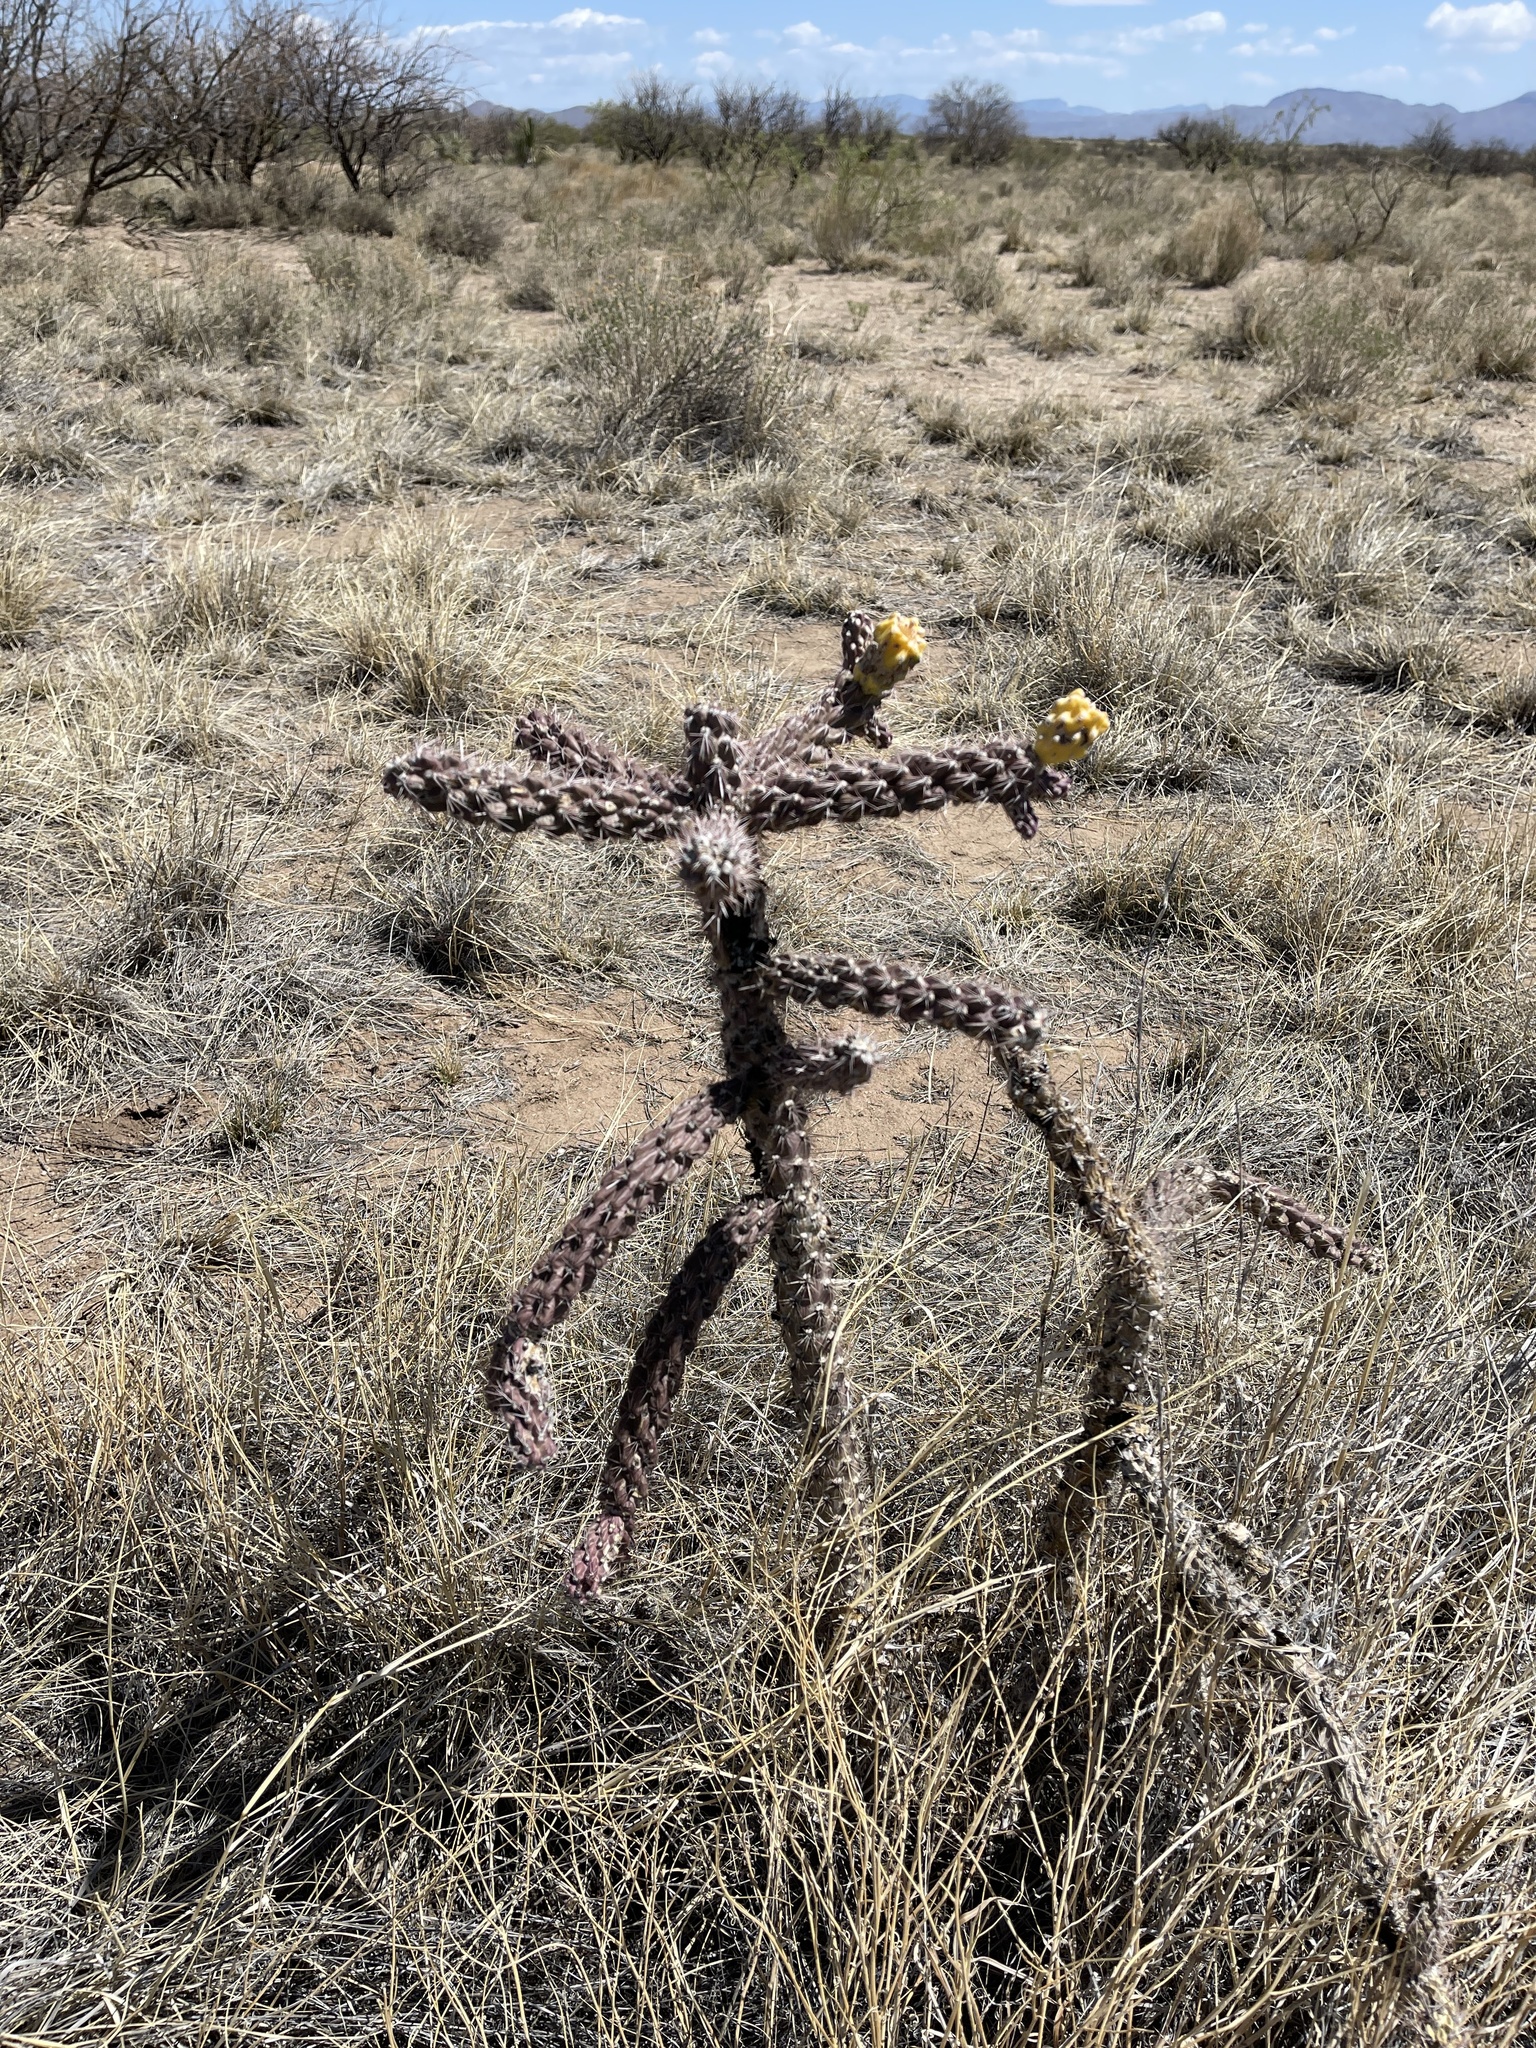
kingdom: Plantae
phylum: Tracheophyta
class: Magnoliopsida
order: Caryophyllales
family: Cactaceae
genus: Cylindropuntia
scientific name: Cylindropuntia imbricata
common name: Candelabrum cactus
